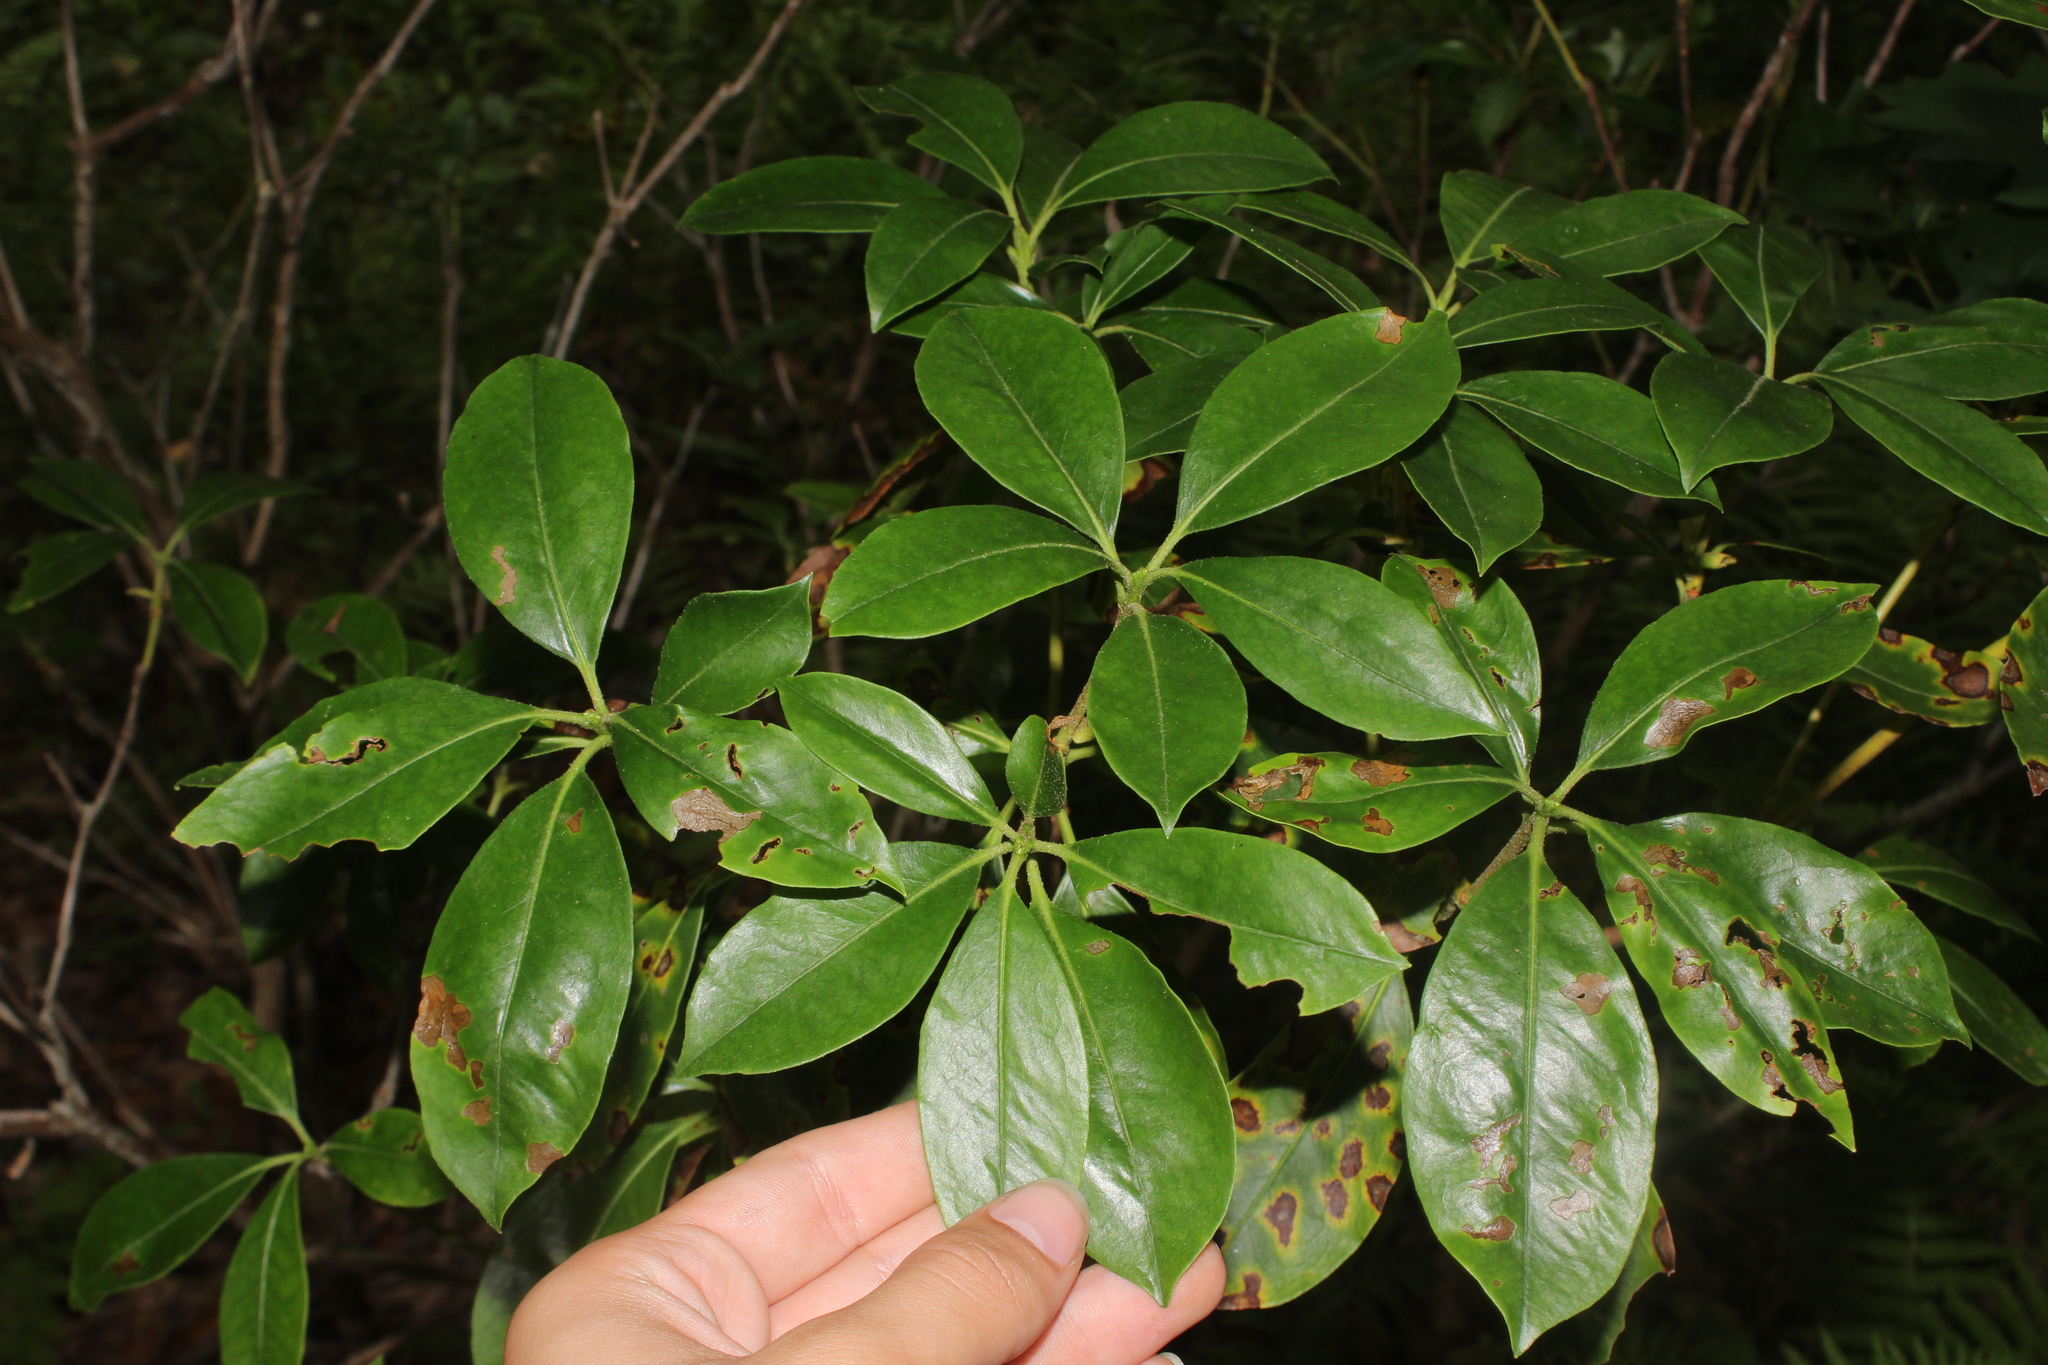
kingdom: Plantae
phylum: Tracheophyta
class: Magnoliopsida
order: Ericales
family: Ericaceae
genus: Kalmia
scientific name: Kalmia latifolia
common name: Mountain-laurel
